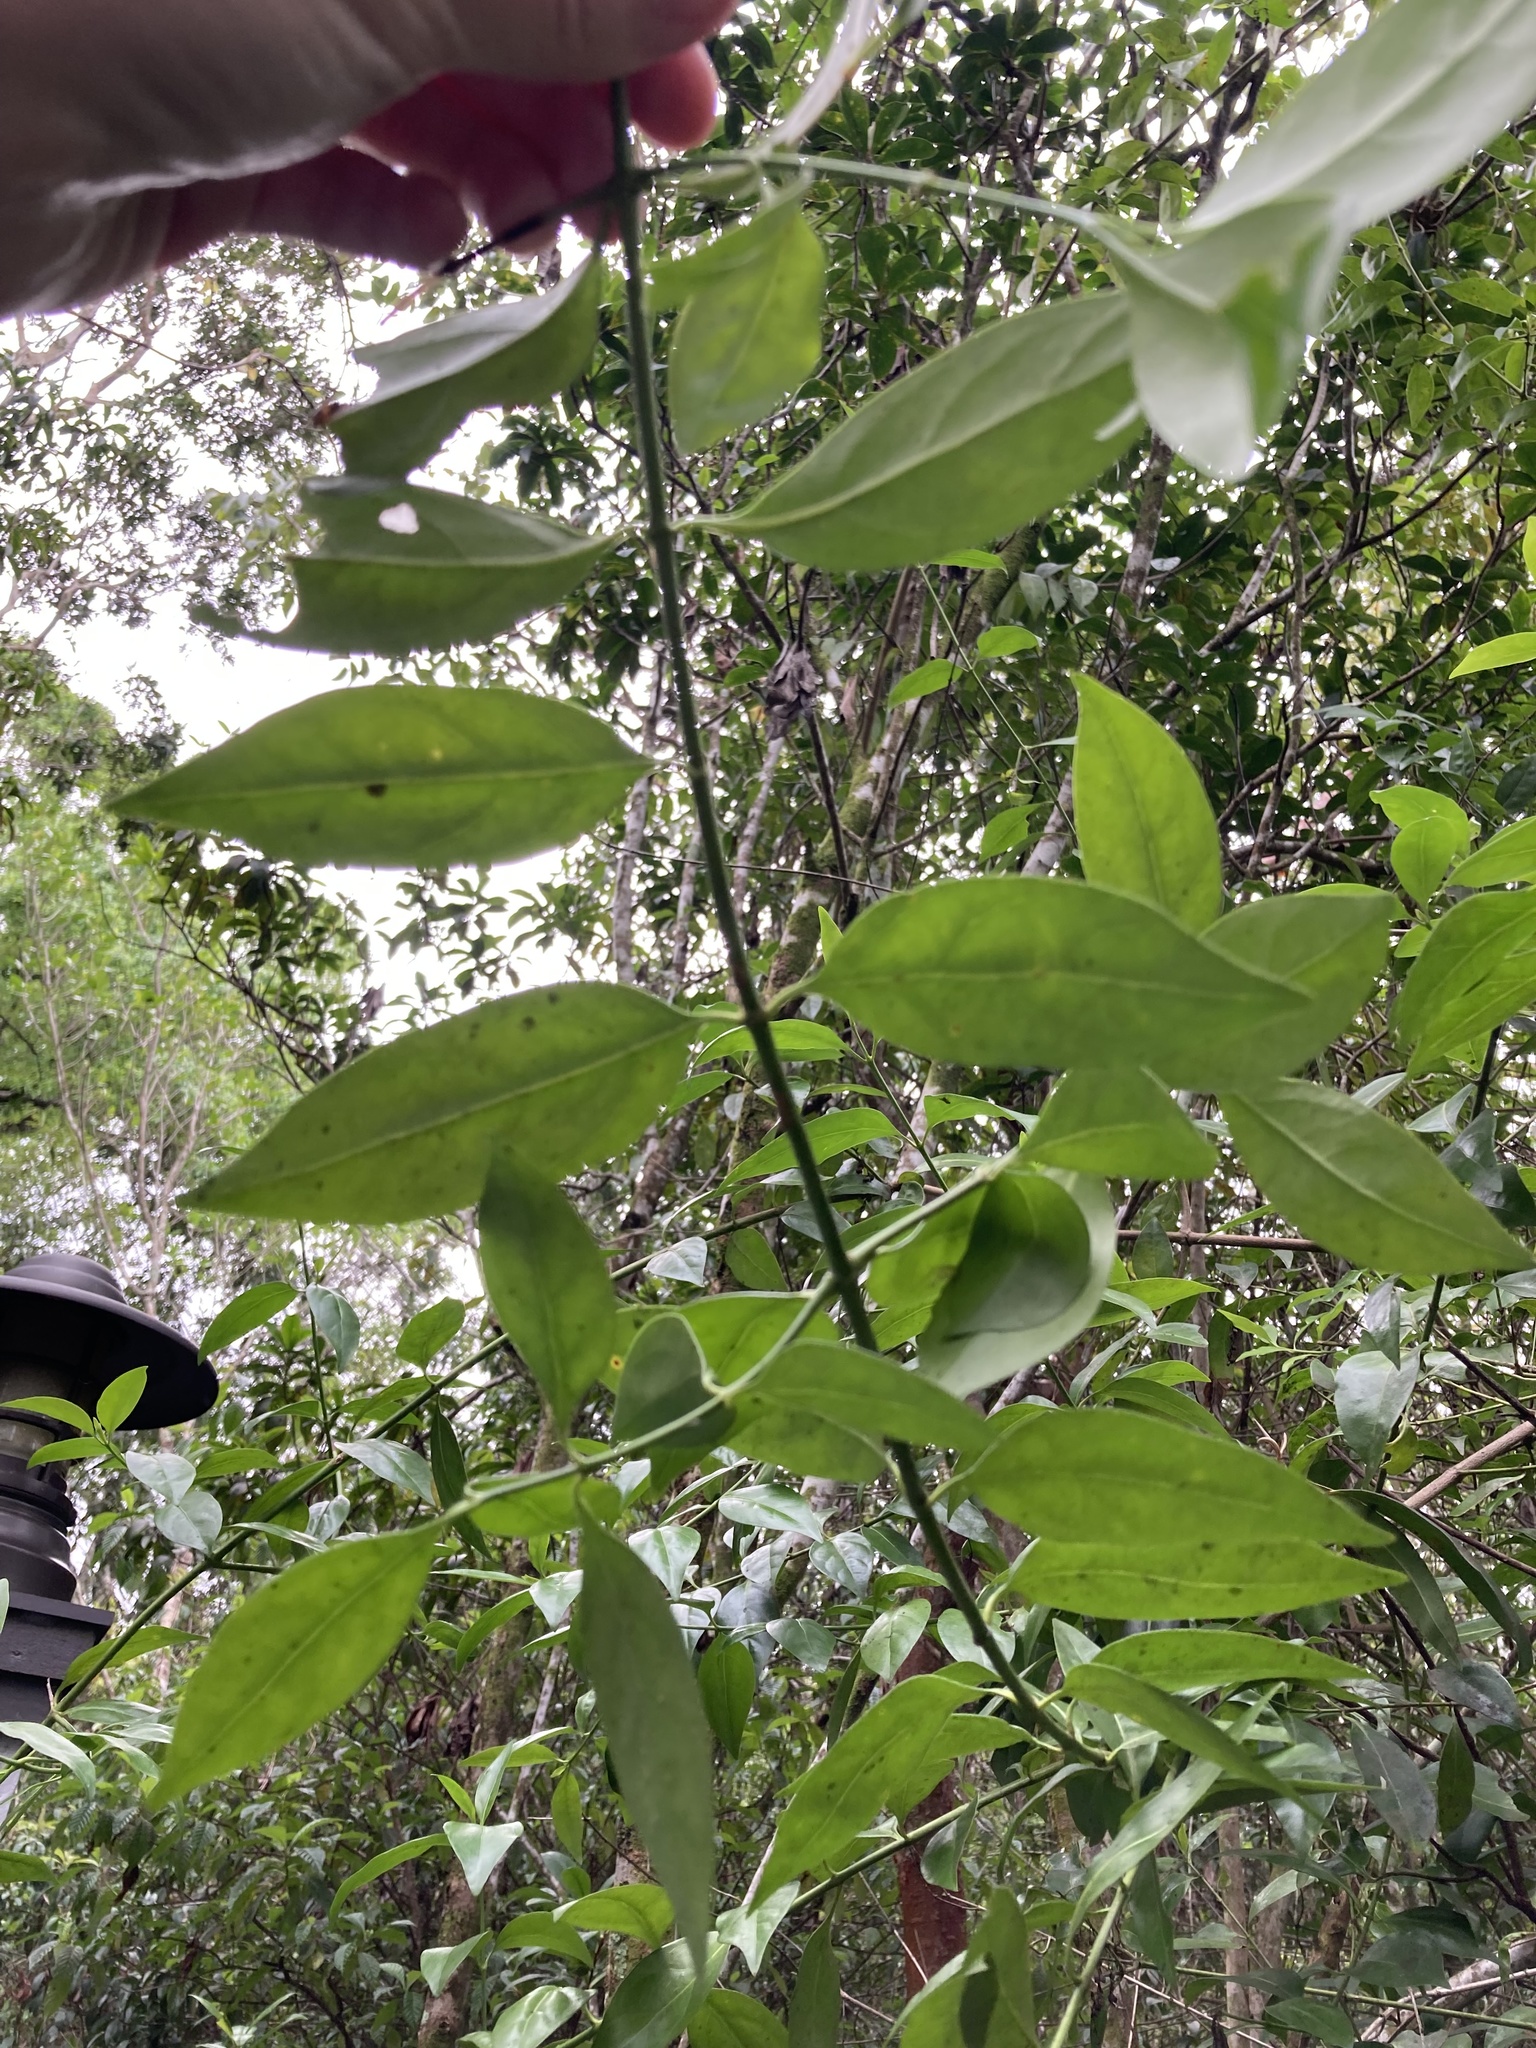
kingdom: Plantae
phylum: Tracheophyta
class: Magnoliopsida
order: Gentianales
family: Rubiaceae
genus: Chiococca
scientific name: Chiococca alba
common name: Snowberry
